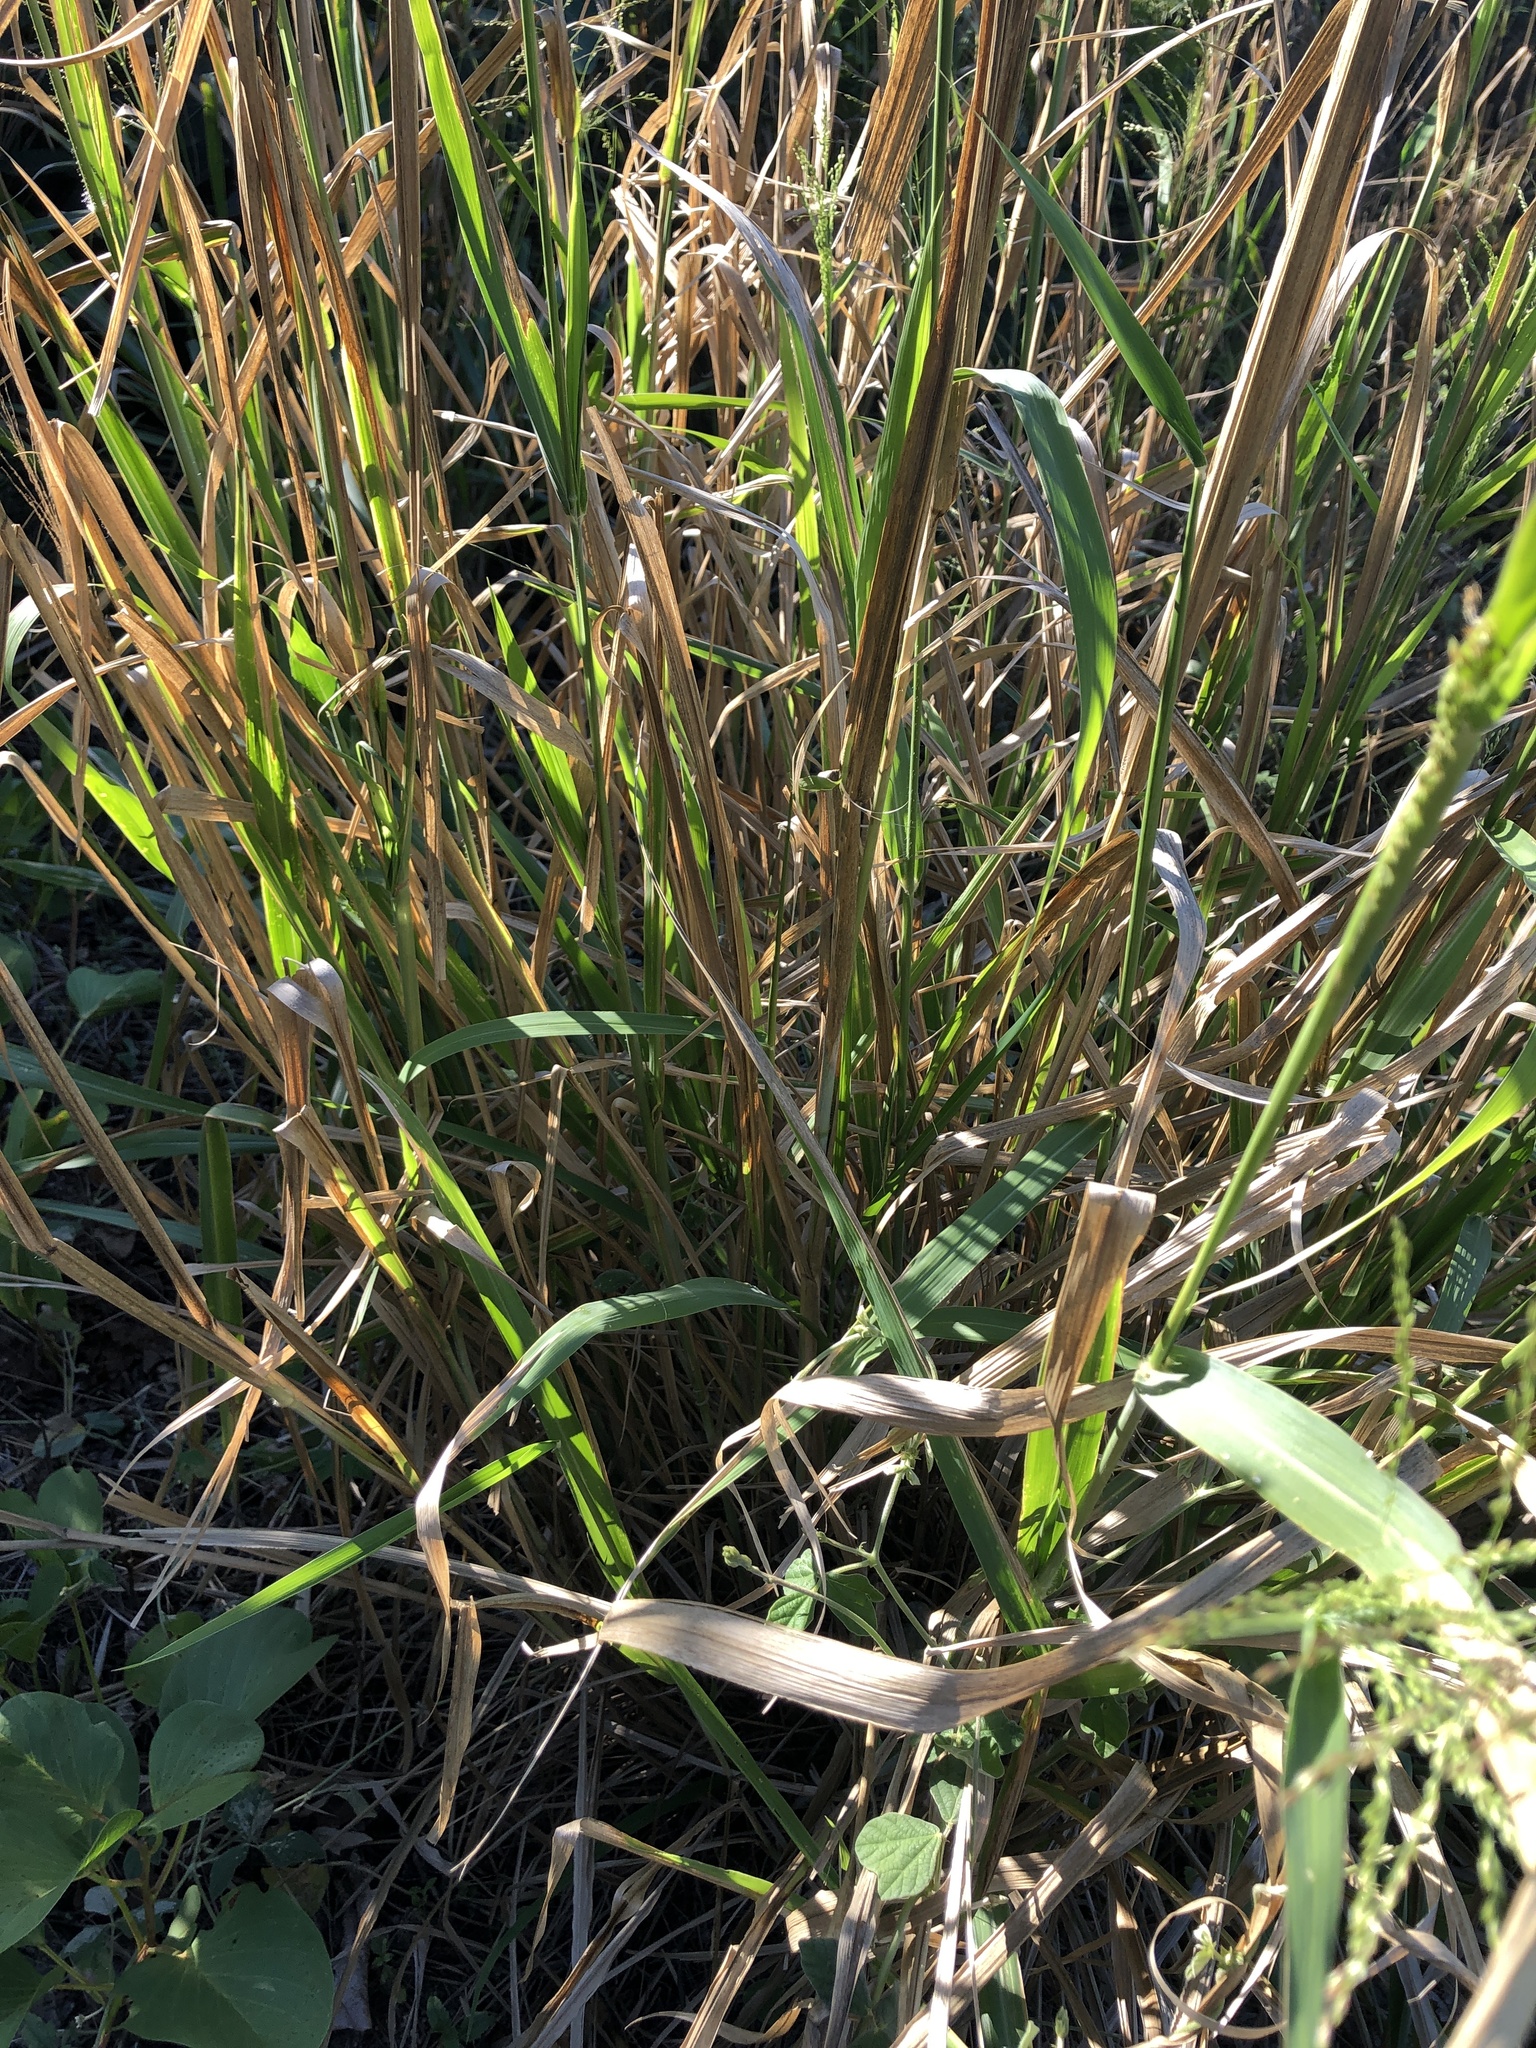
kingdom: Plantae
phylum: Tracheophyta
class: Liliopsida
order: Poales
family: Poaceae
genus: Megathyrsus
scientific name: Megathyrsus maximus
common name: Guineagrass
